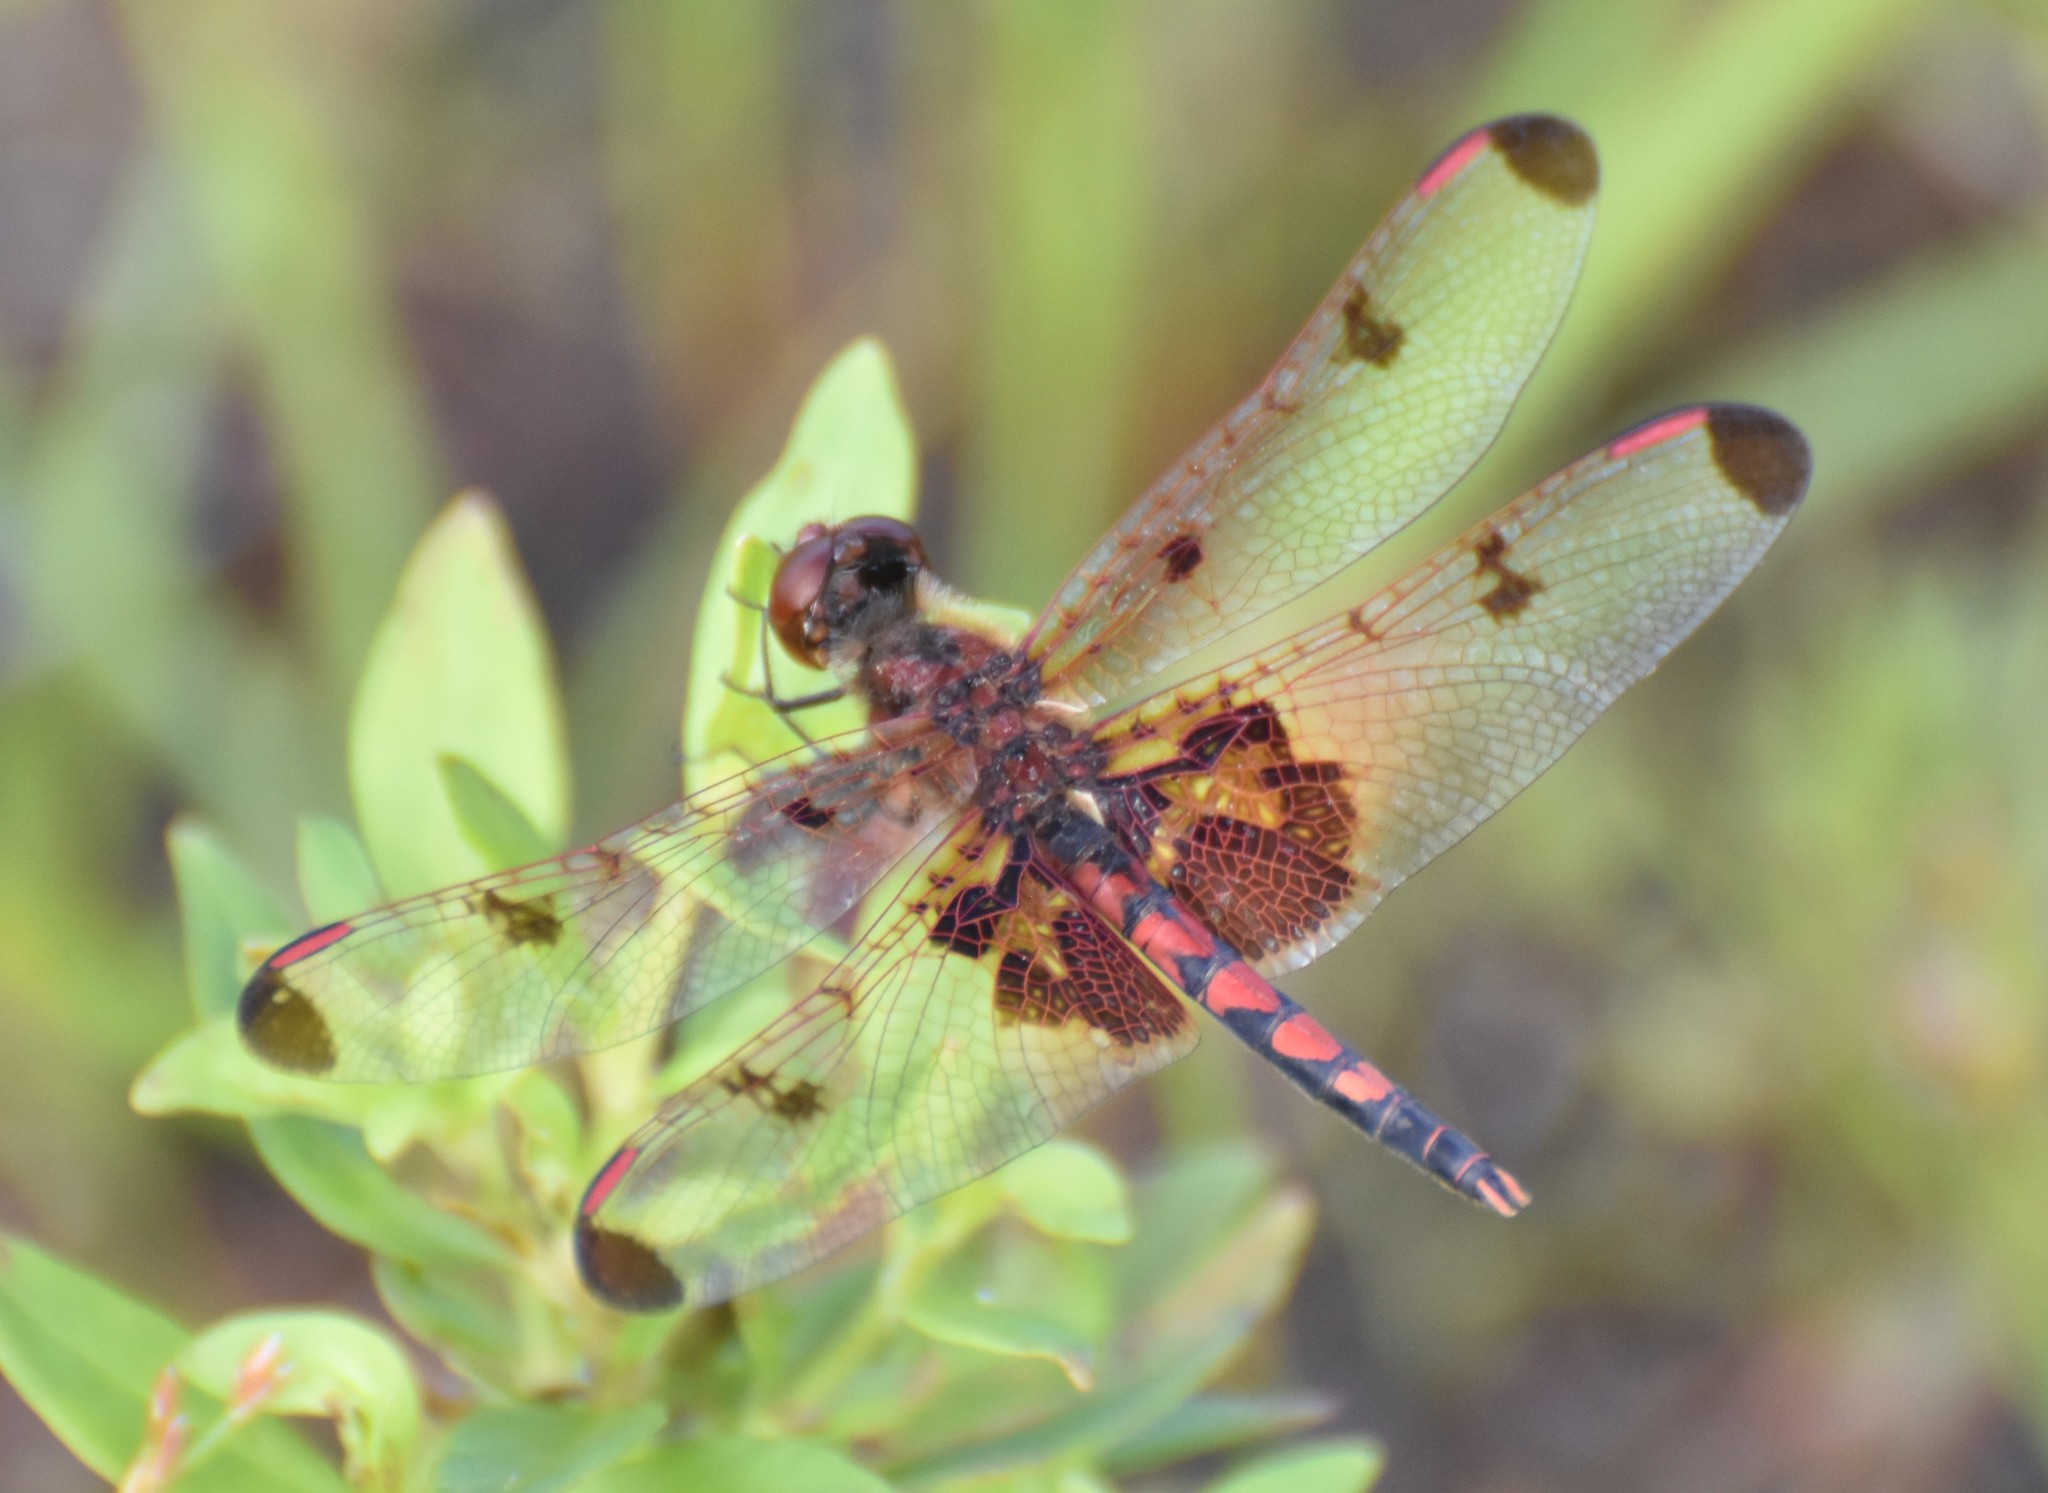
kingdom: Animalia
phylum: Arthropoda
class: Insecta
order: Odonata
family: Libellulidae
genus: Celithemis
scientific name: Celithemis elisa
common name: Calico pennant
